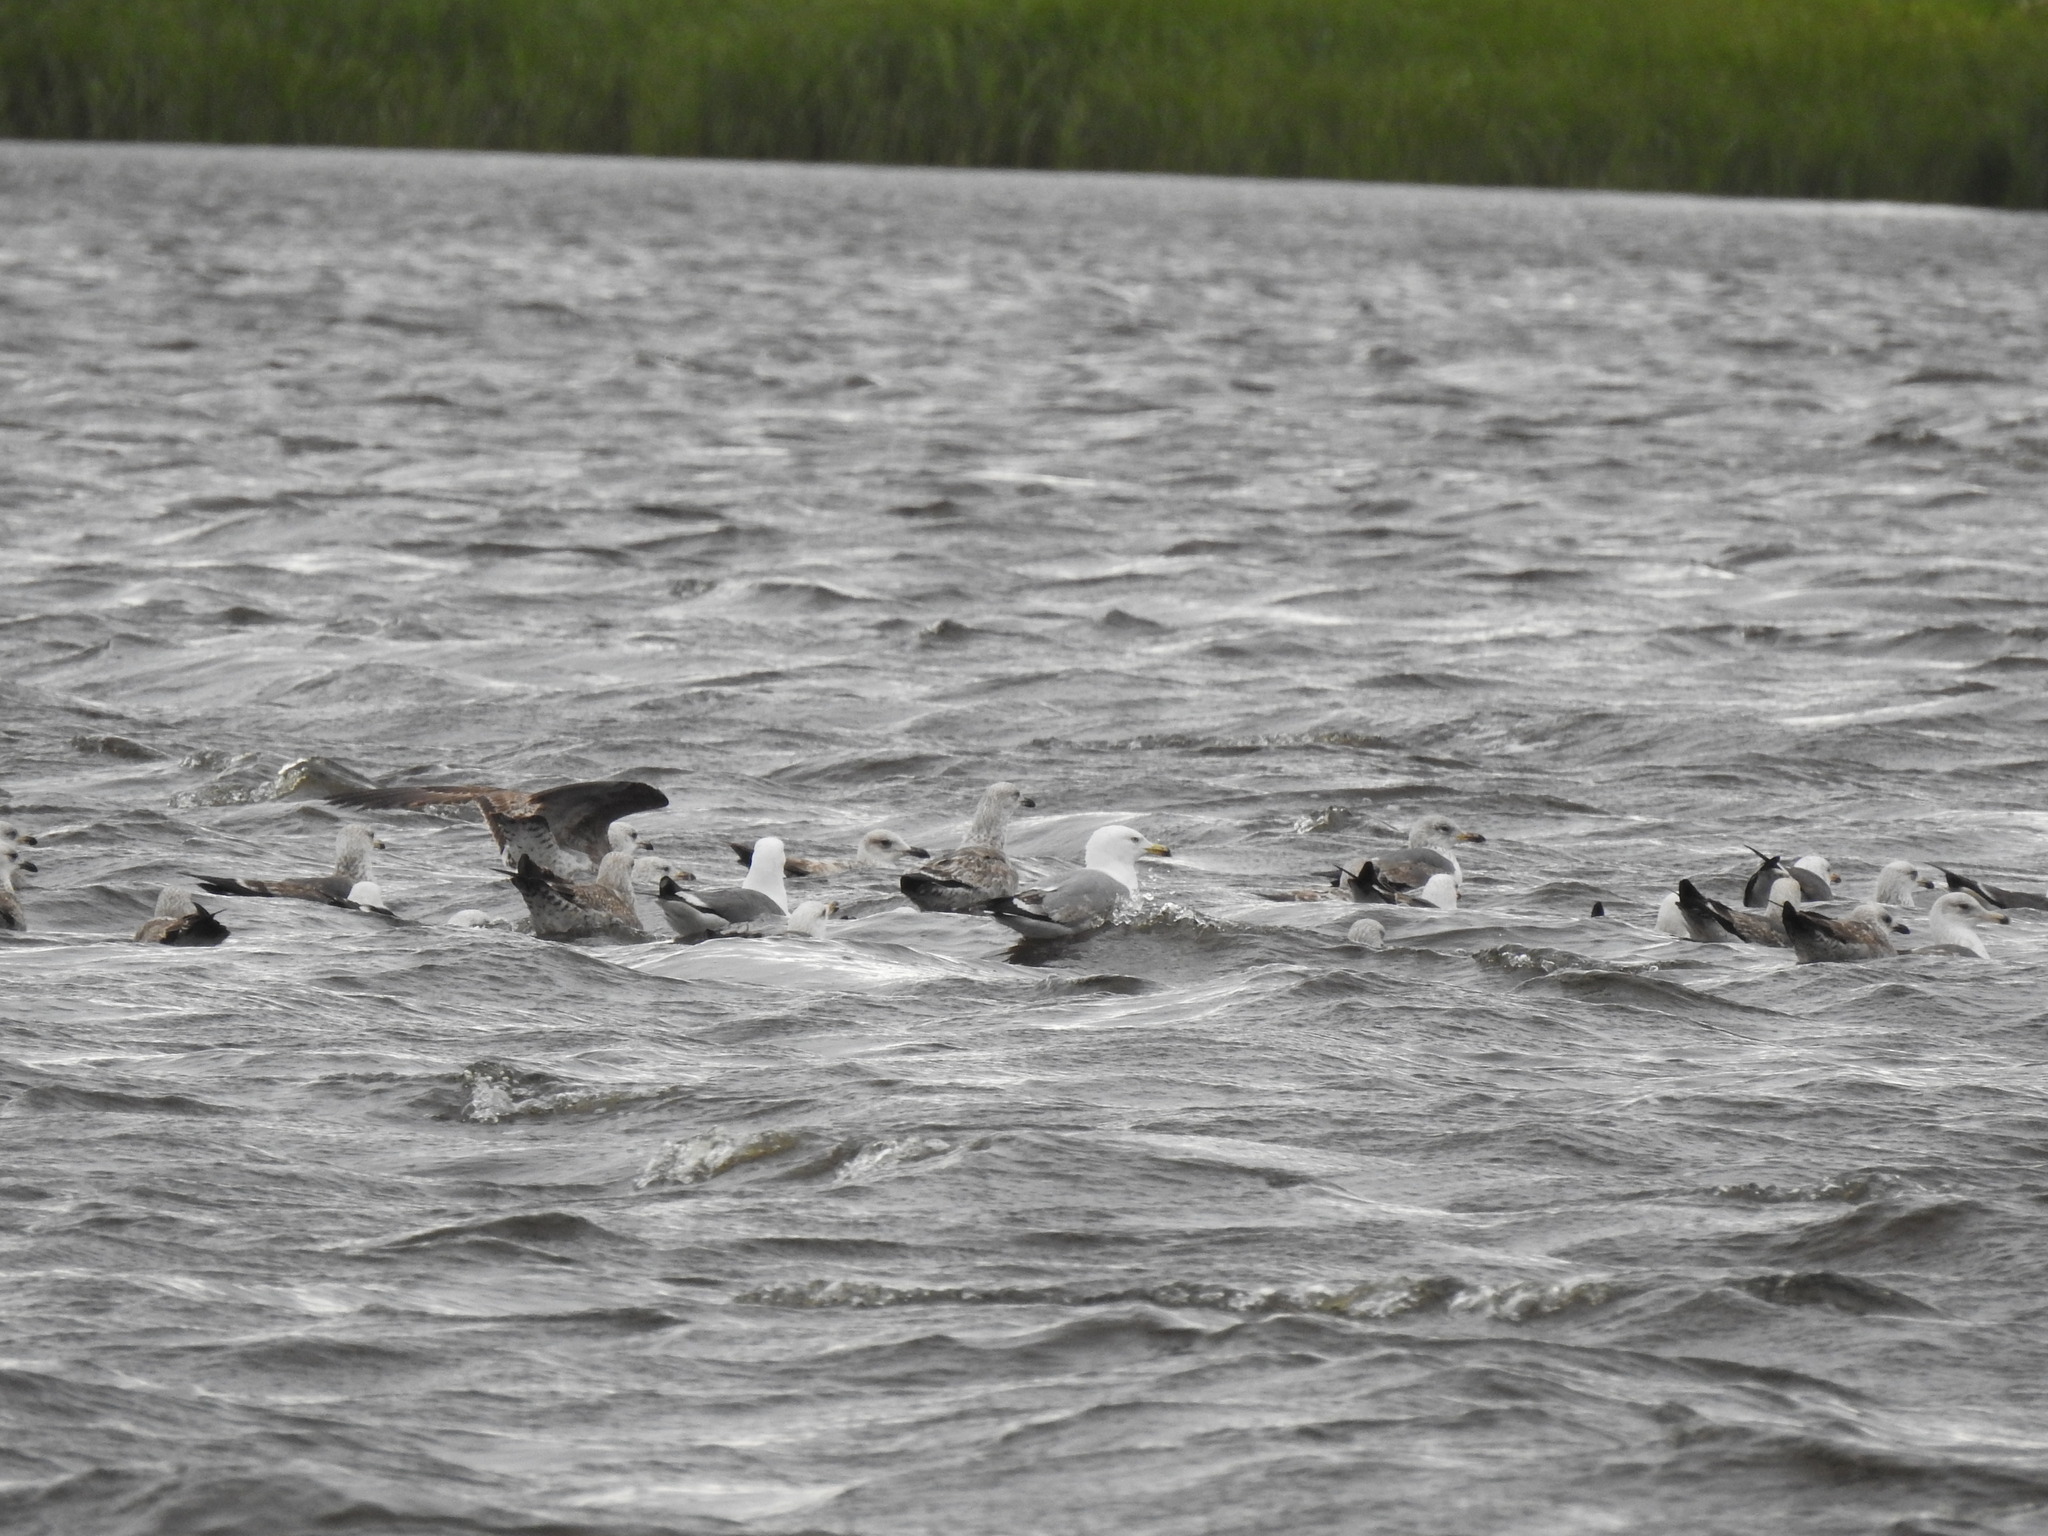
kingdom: Animalia
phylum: Chordata
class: Aves
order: Charadriiformes
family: Laridae
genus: Larus
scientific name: Larus michahellis
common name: Yellow-legged gull
